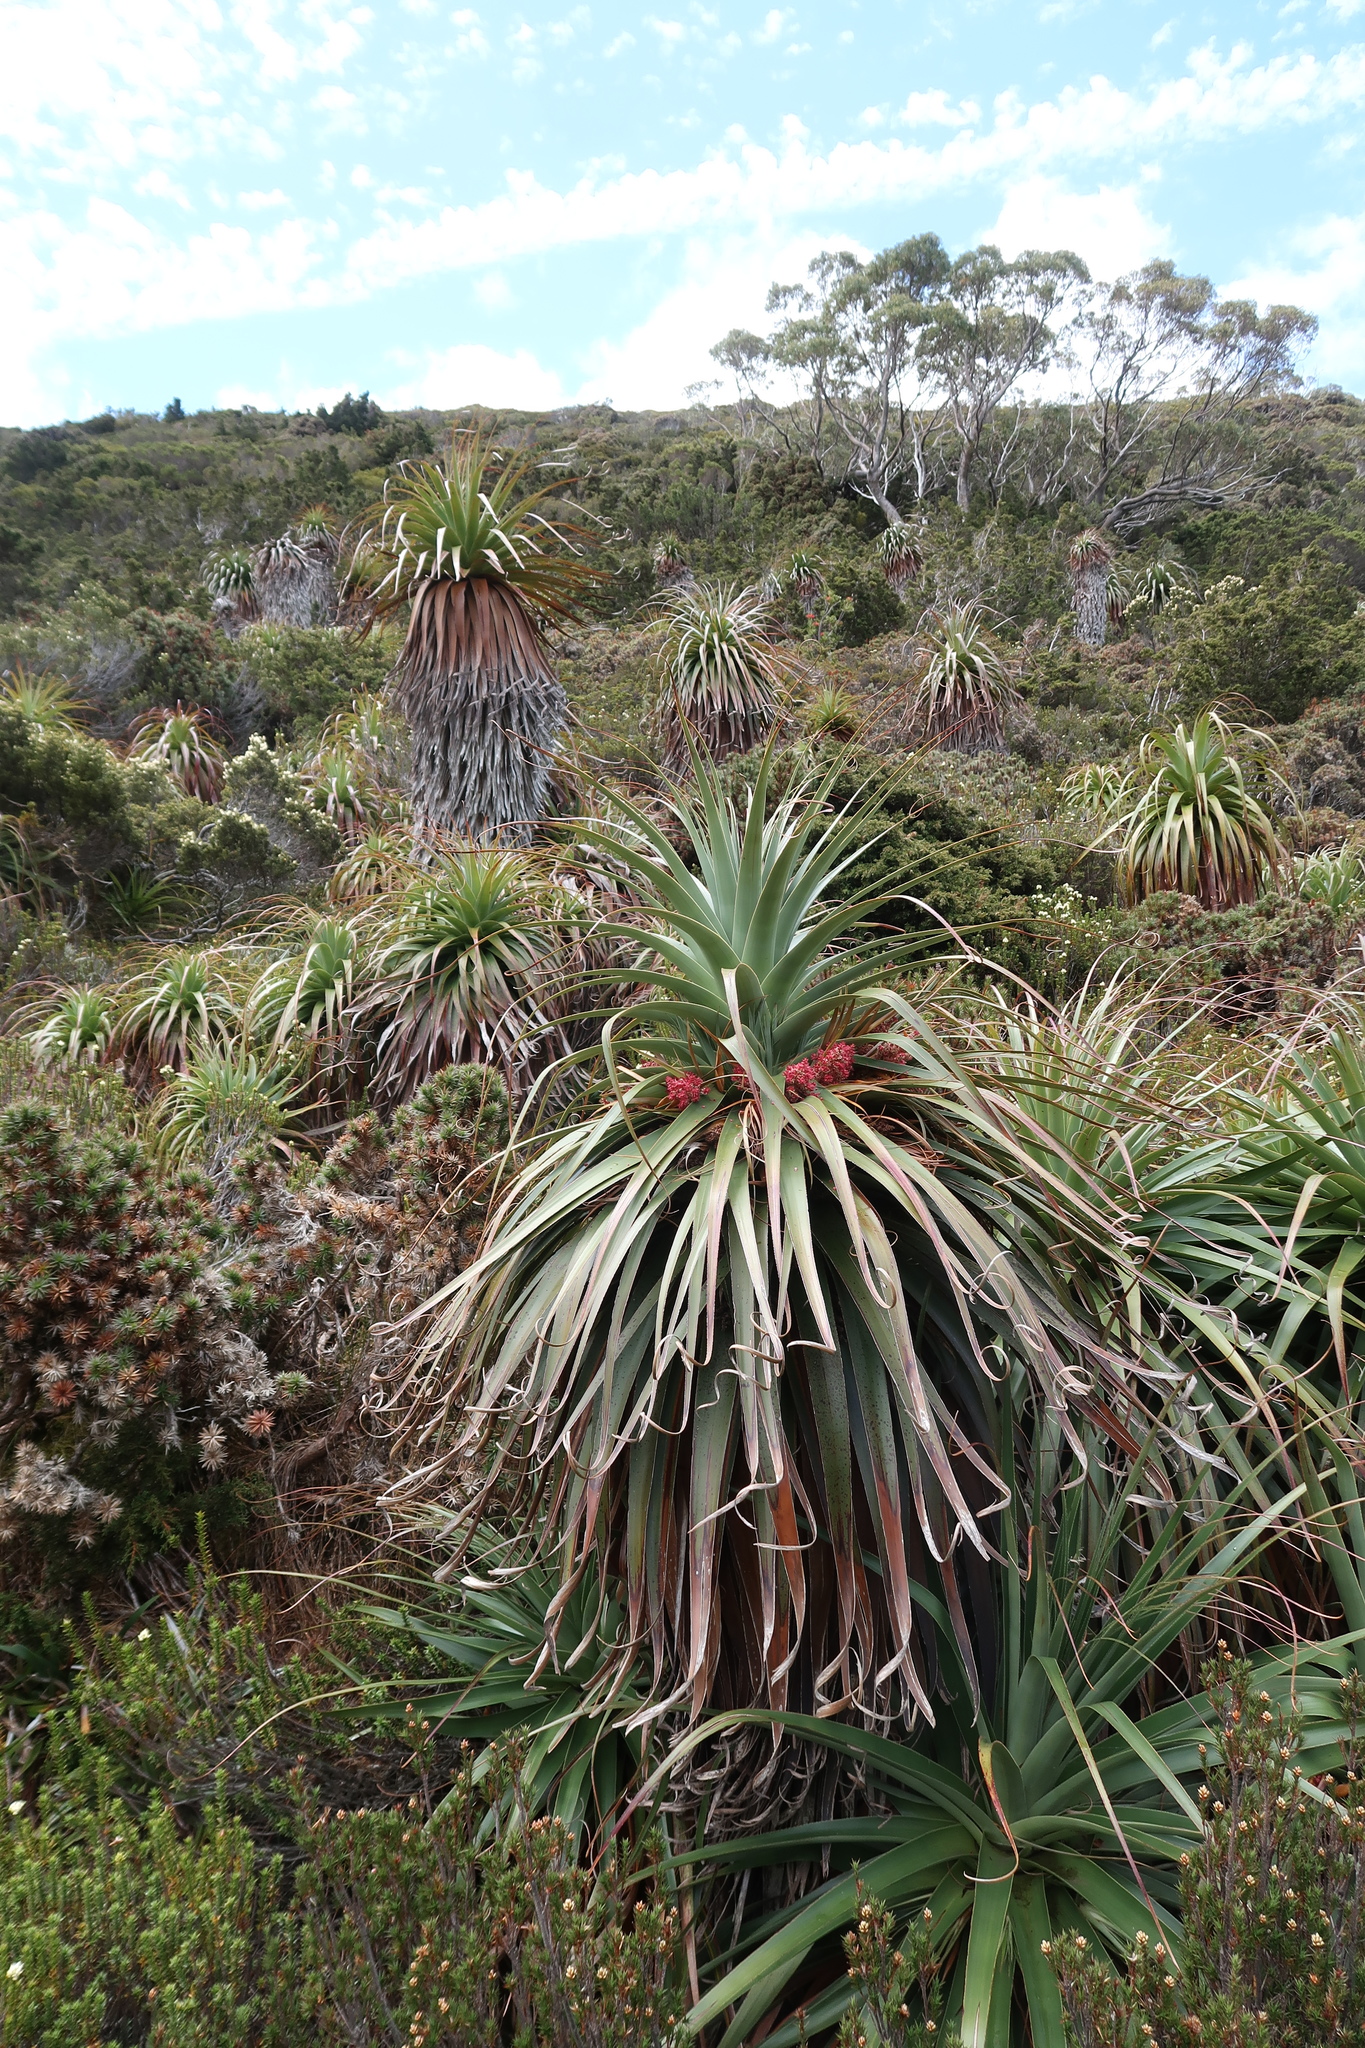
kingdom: Plantae
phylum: Tracheophyta
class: Magnoliopsida
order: Ericales
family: Ericaceae
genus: Dracophyllum
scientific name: Dracophyllum pandanifolium
